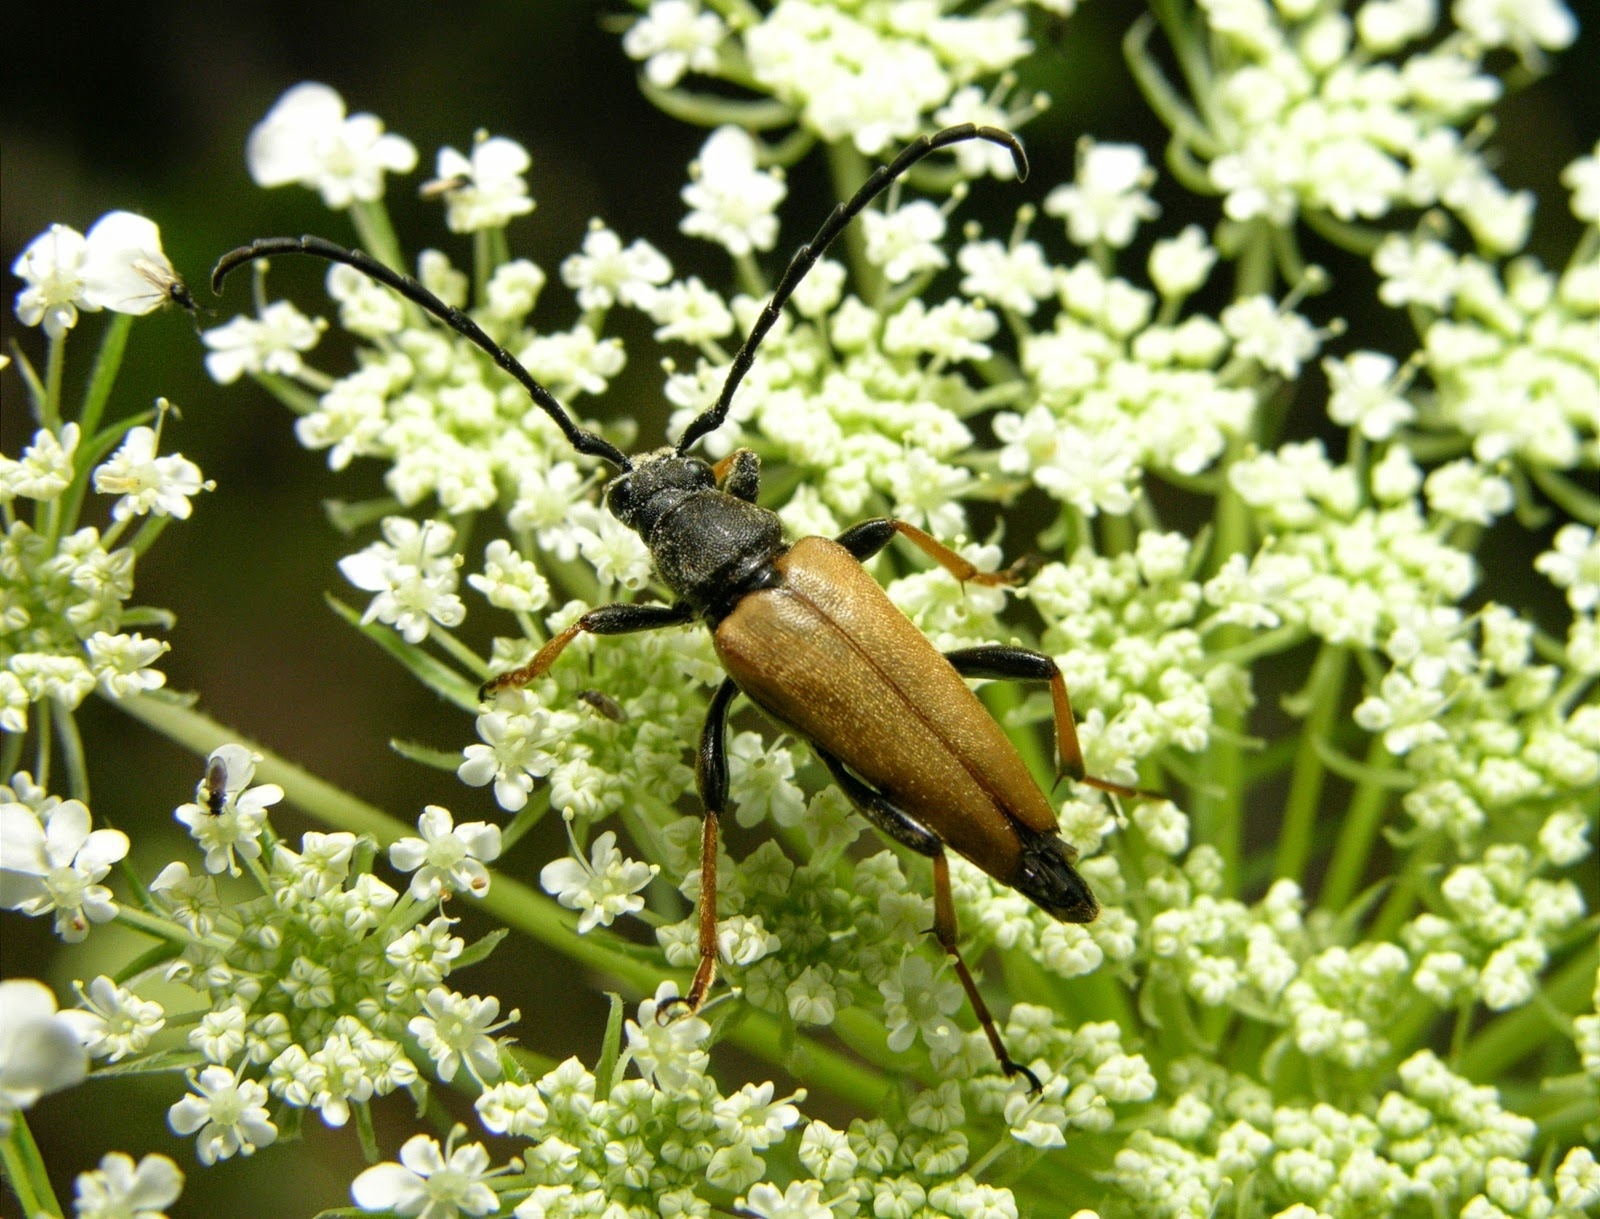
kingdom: Animalia
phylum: Arthropoda
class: Insecta
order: Coleoptera
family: Cerambycidae
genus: Stictoleptura
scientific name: Stictoleptura rubra
